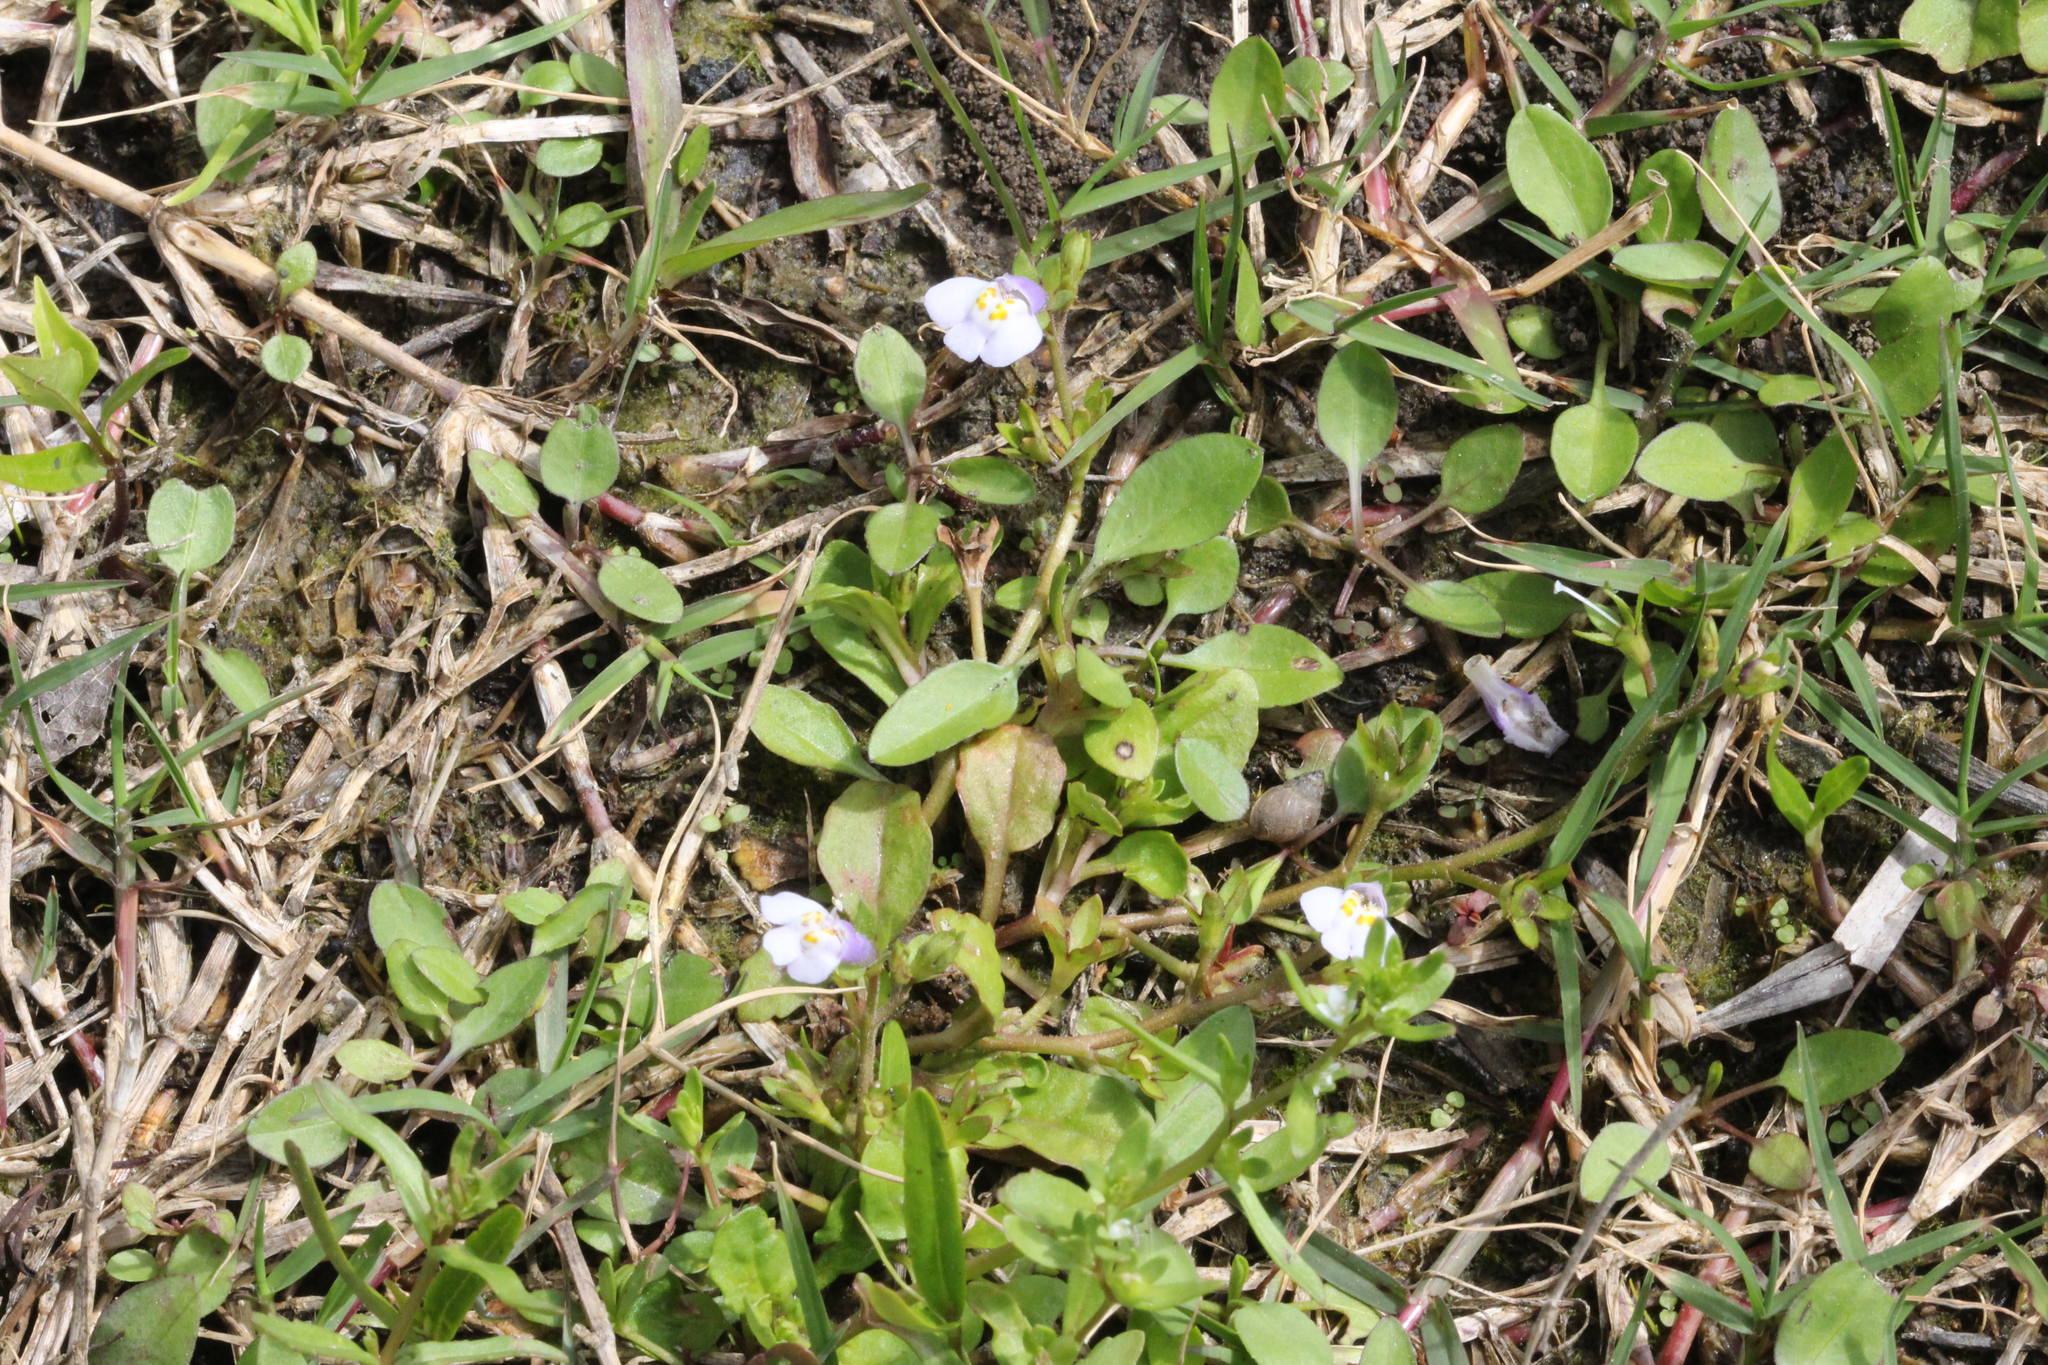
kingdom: Plantae
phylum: Tracheophyta
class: Magnoliopsida
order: Lamiales
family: Mazaceae
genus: Mazus
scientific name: Mazus pumilus
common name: Japanese mazus
